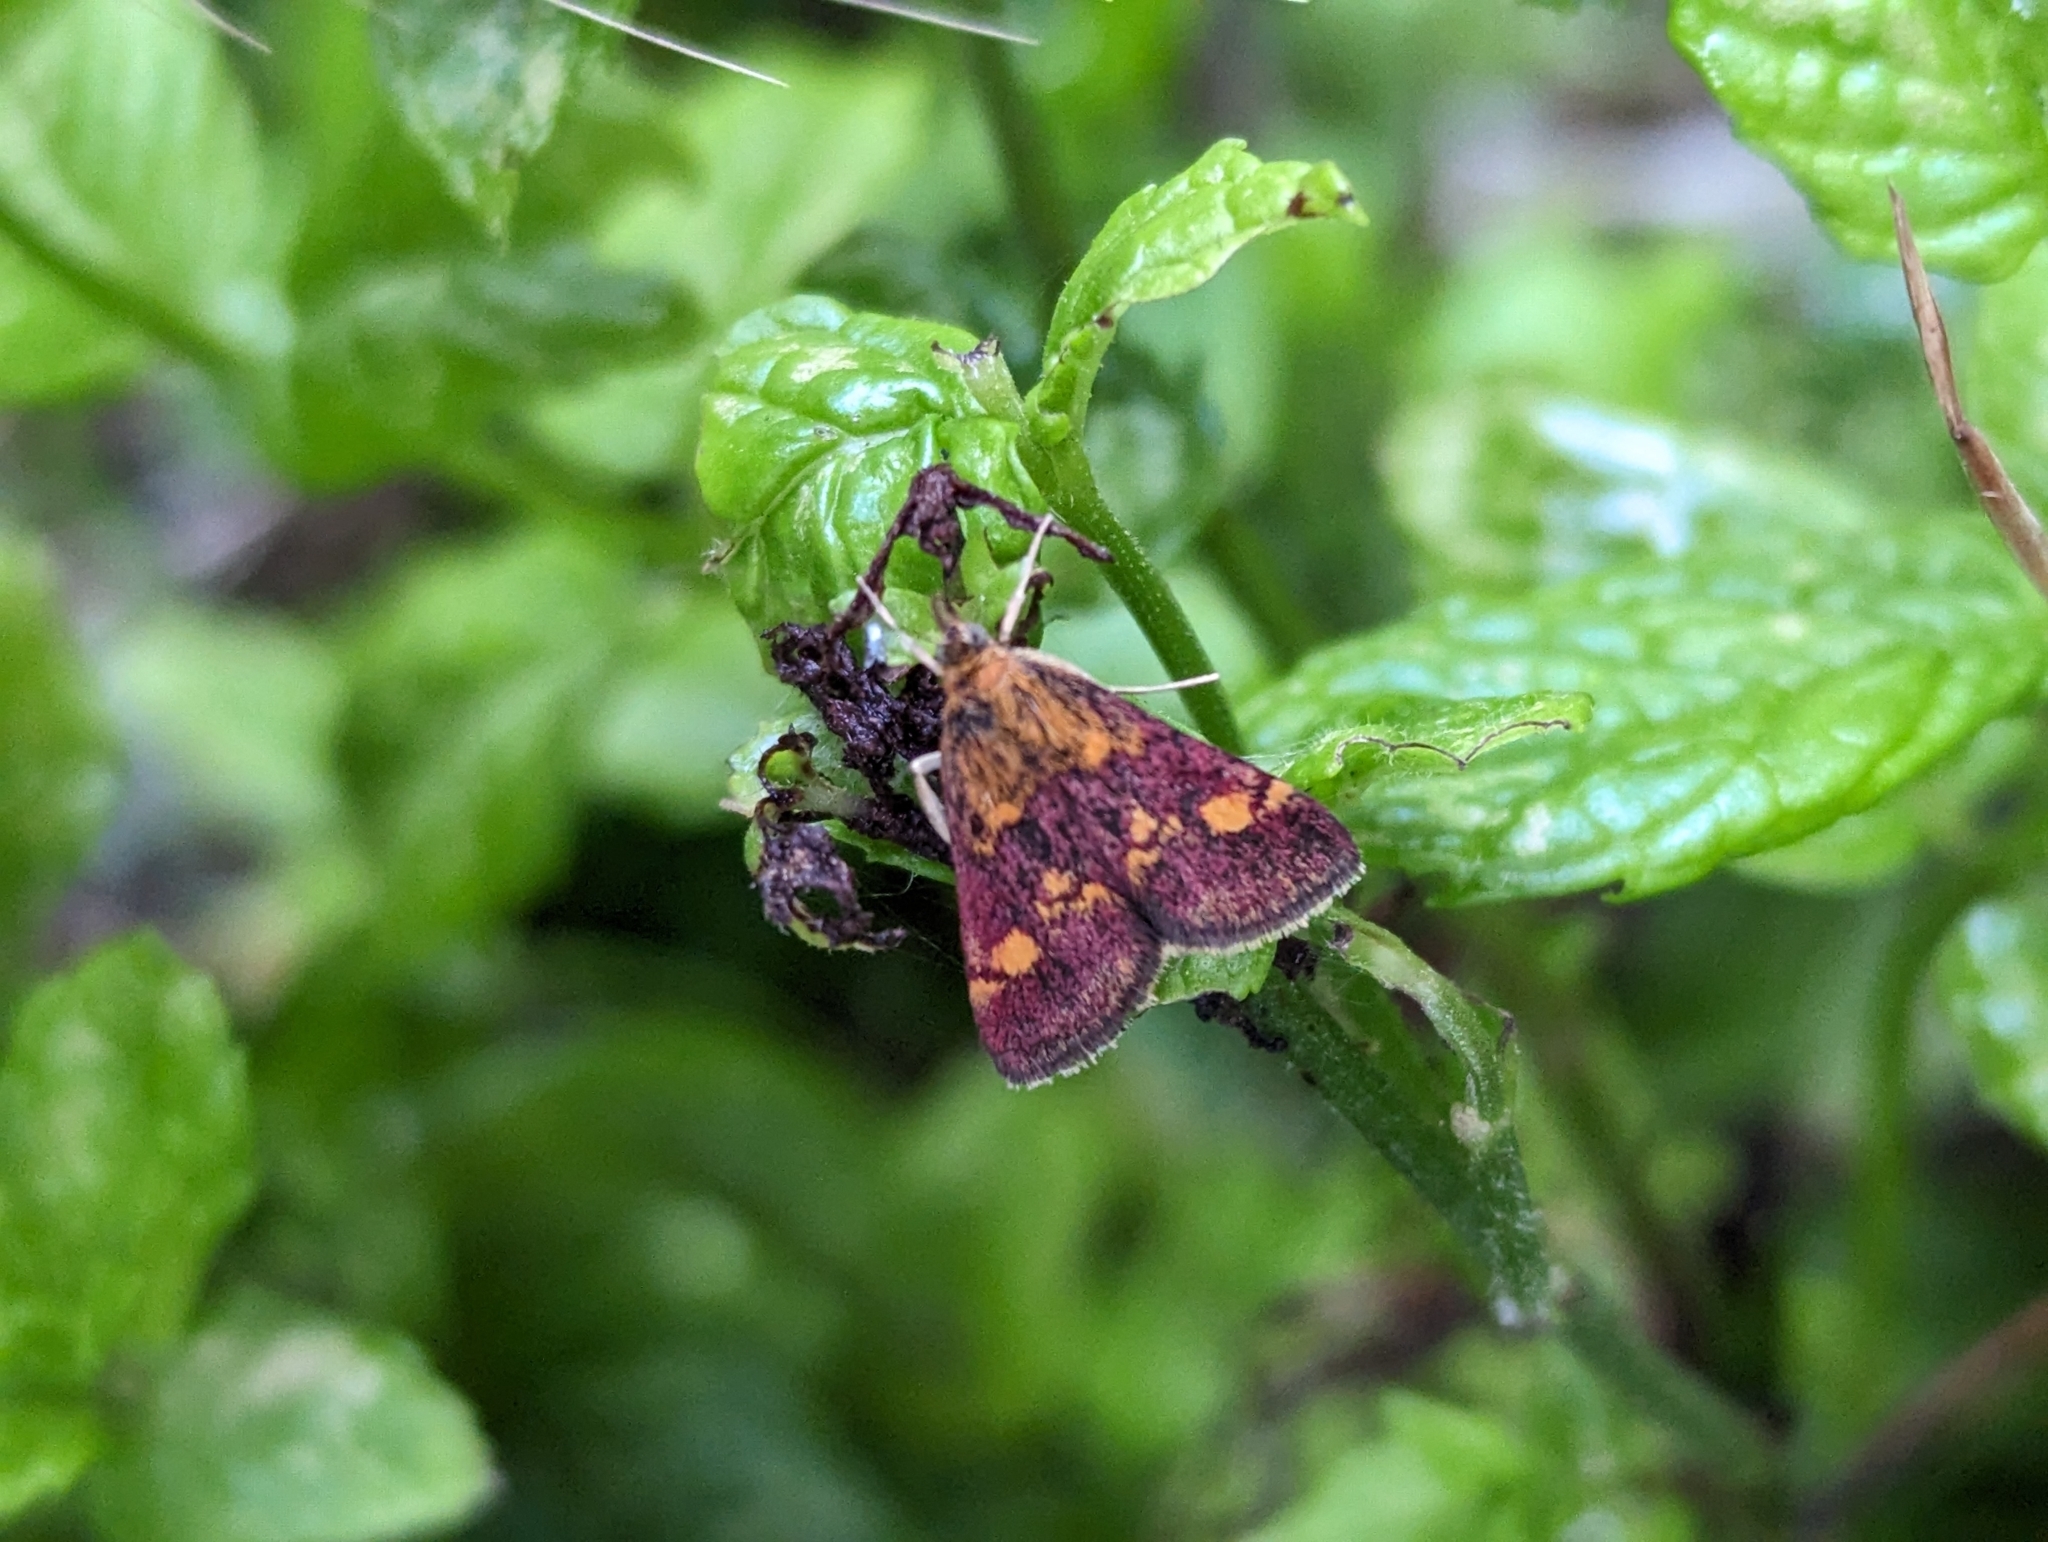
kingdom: Animalia
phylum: Arthropoda
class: Insecta
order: Lepidoptera
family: Crambidae
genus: Pyrausta
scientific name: Pyrausta aurata
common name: Small purple & gold
